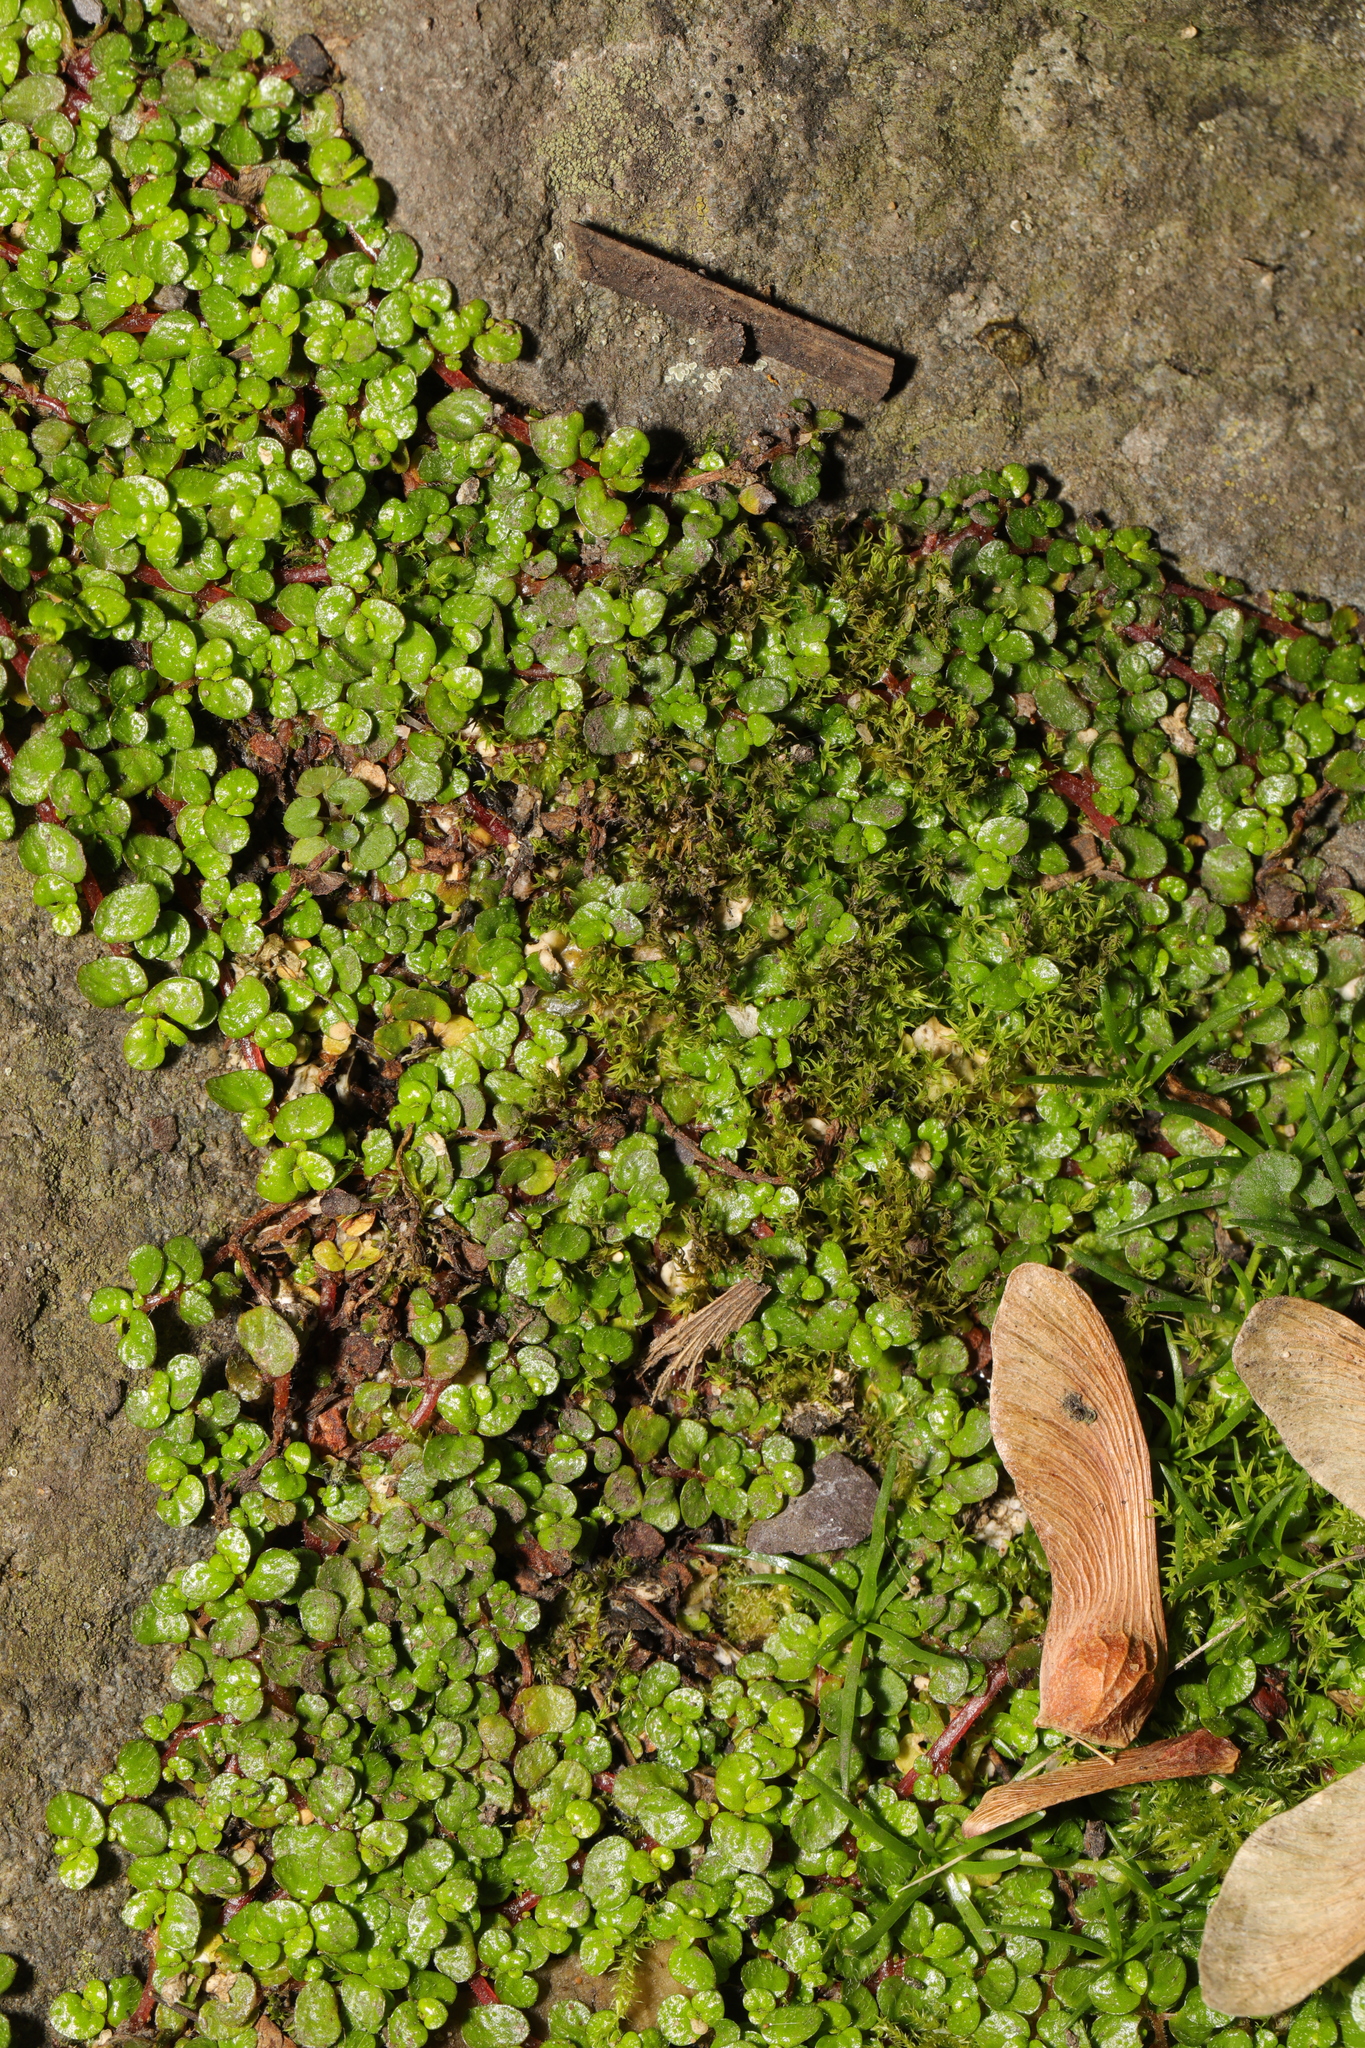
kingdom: Plantae
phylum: Tracheophyta
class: Magnoliopsida
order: Rosales
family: Urticaceae
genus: Soleirolia
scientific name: Soleirolia soleirolii
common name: Mind-your-own-business
